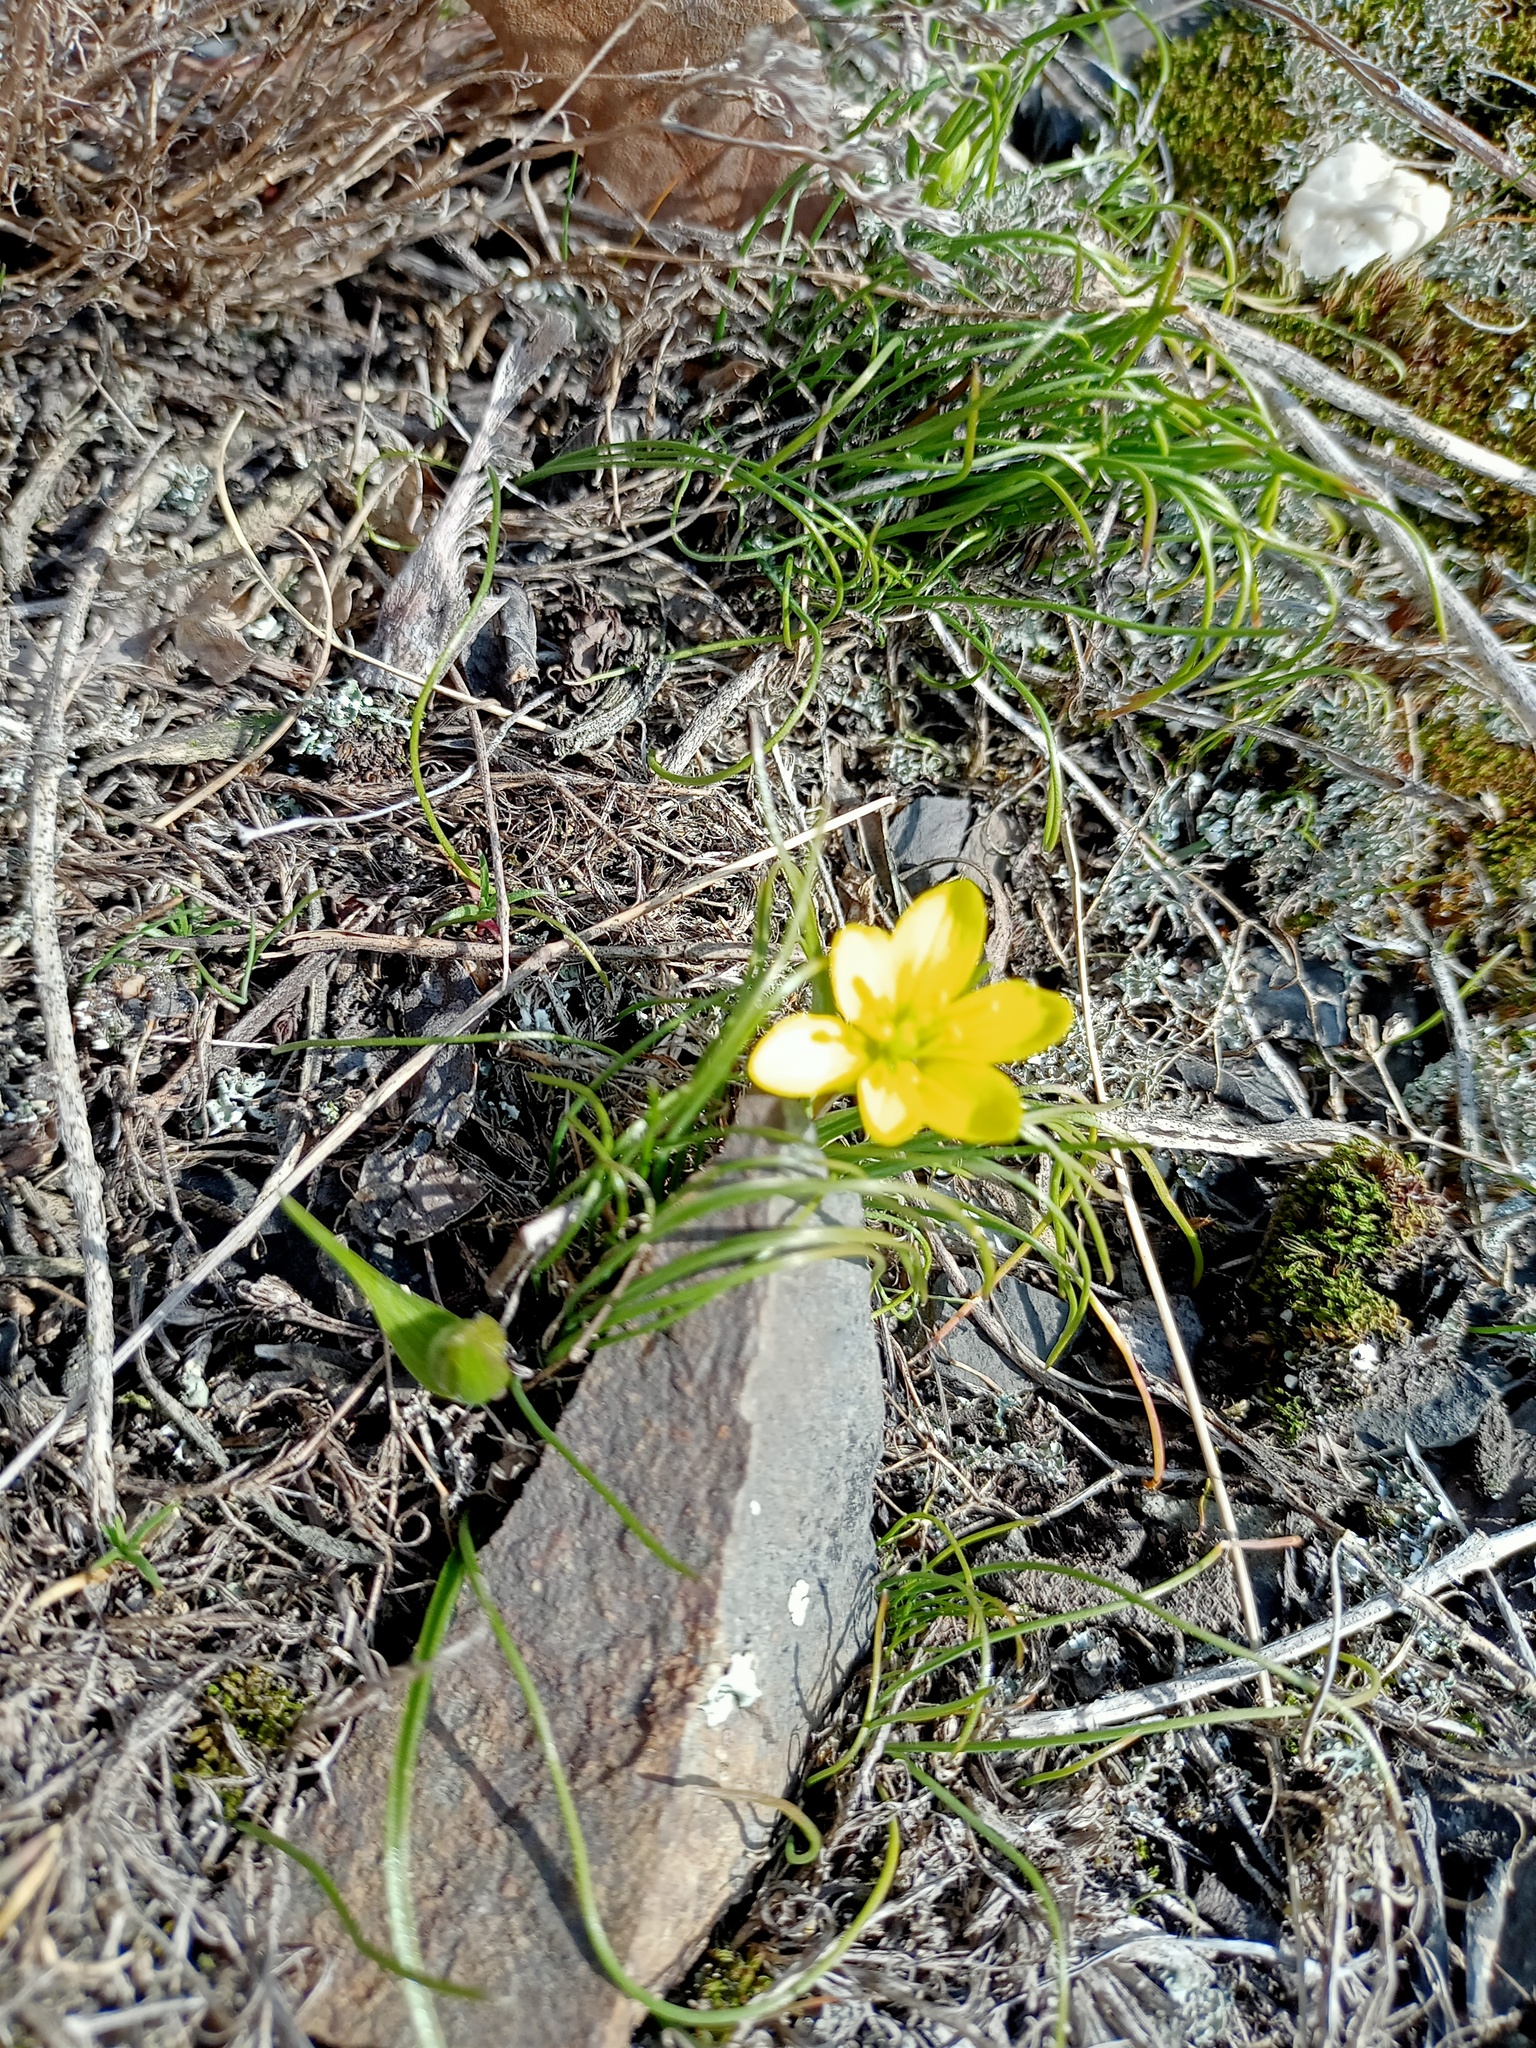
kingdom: Plantae
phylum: Tracheophyta
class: Liliopsida
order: Liliales
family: Liliaceae
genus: Gagea
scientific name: Gagea bohemica
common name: Early star-of-bethlehem
